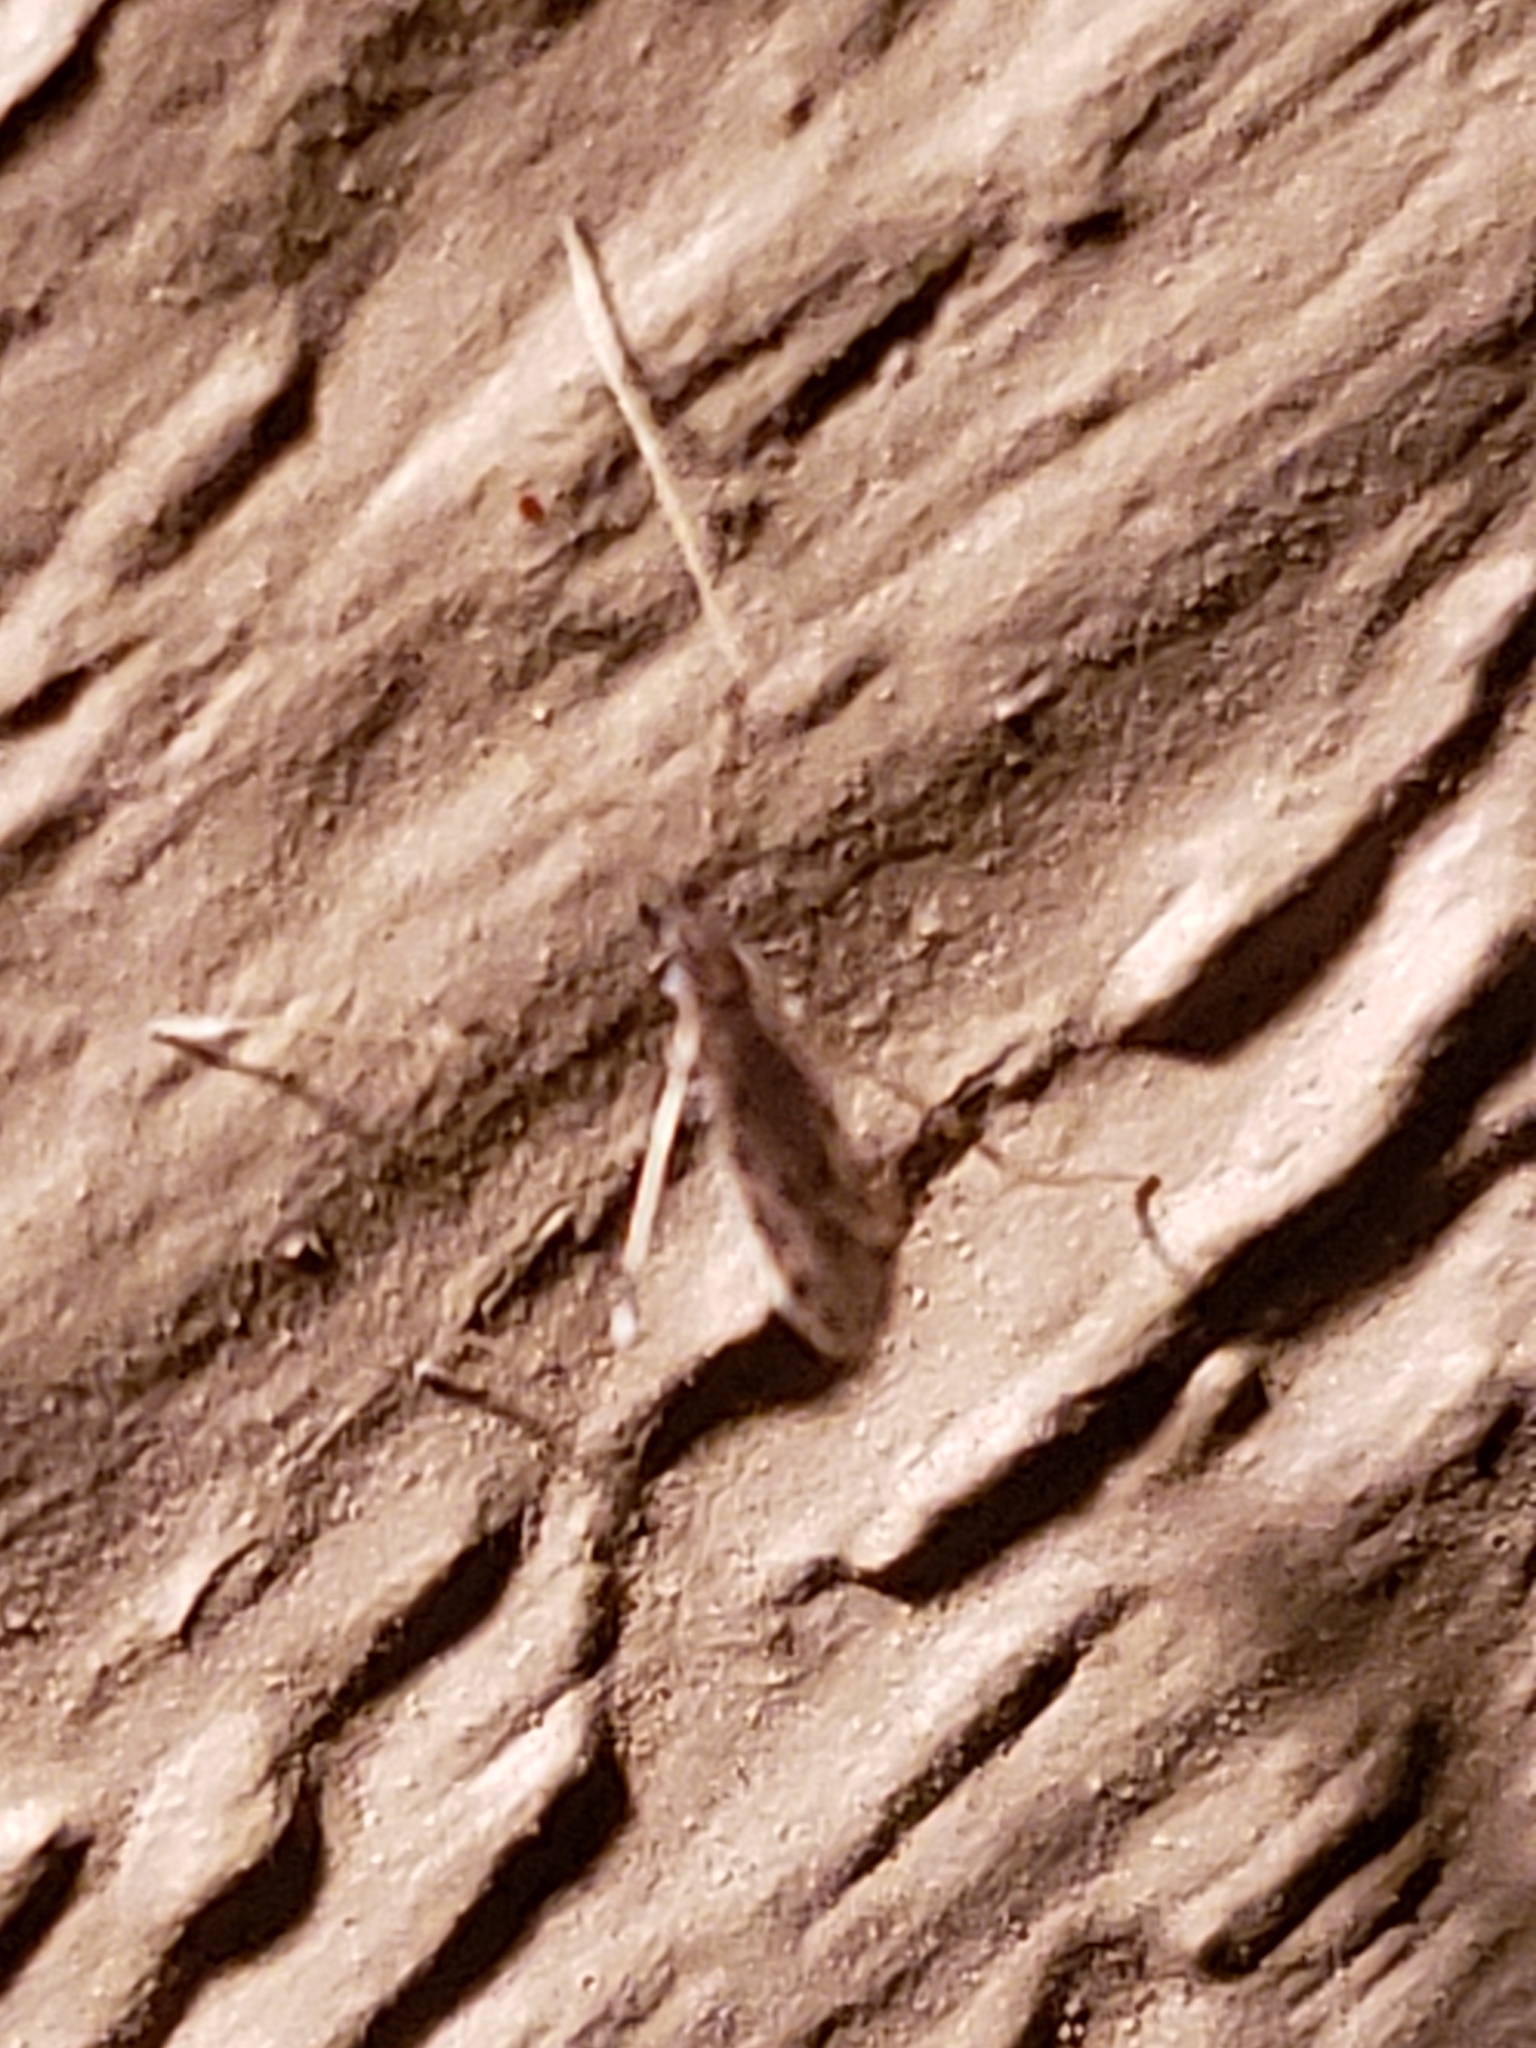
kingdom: Animalia
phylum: Arthropoda
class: Insecta
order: Diptera
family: Limoniidae
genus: Erioptera
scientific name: Erioptera parva
